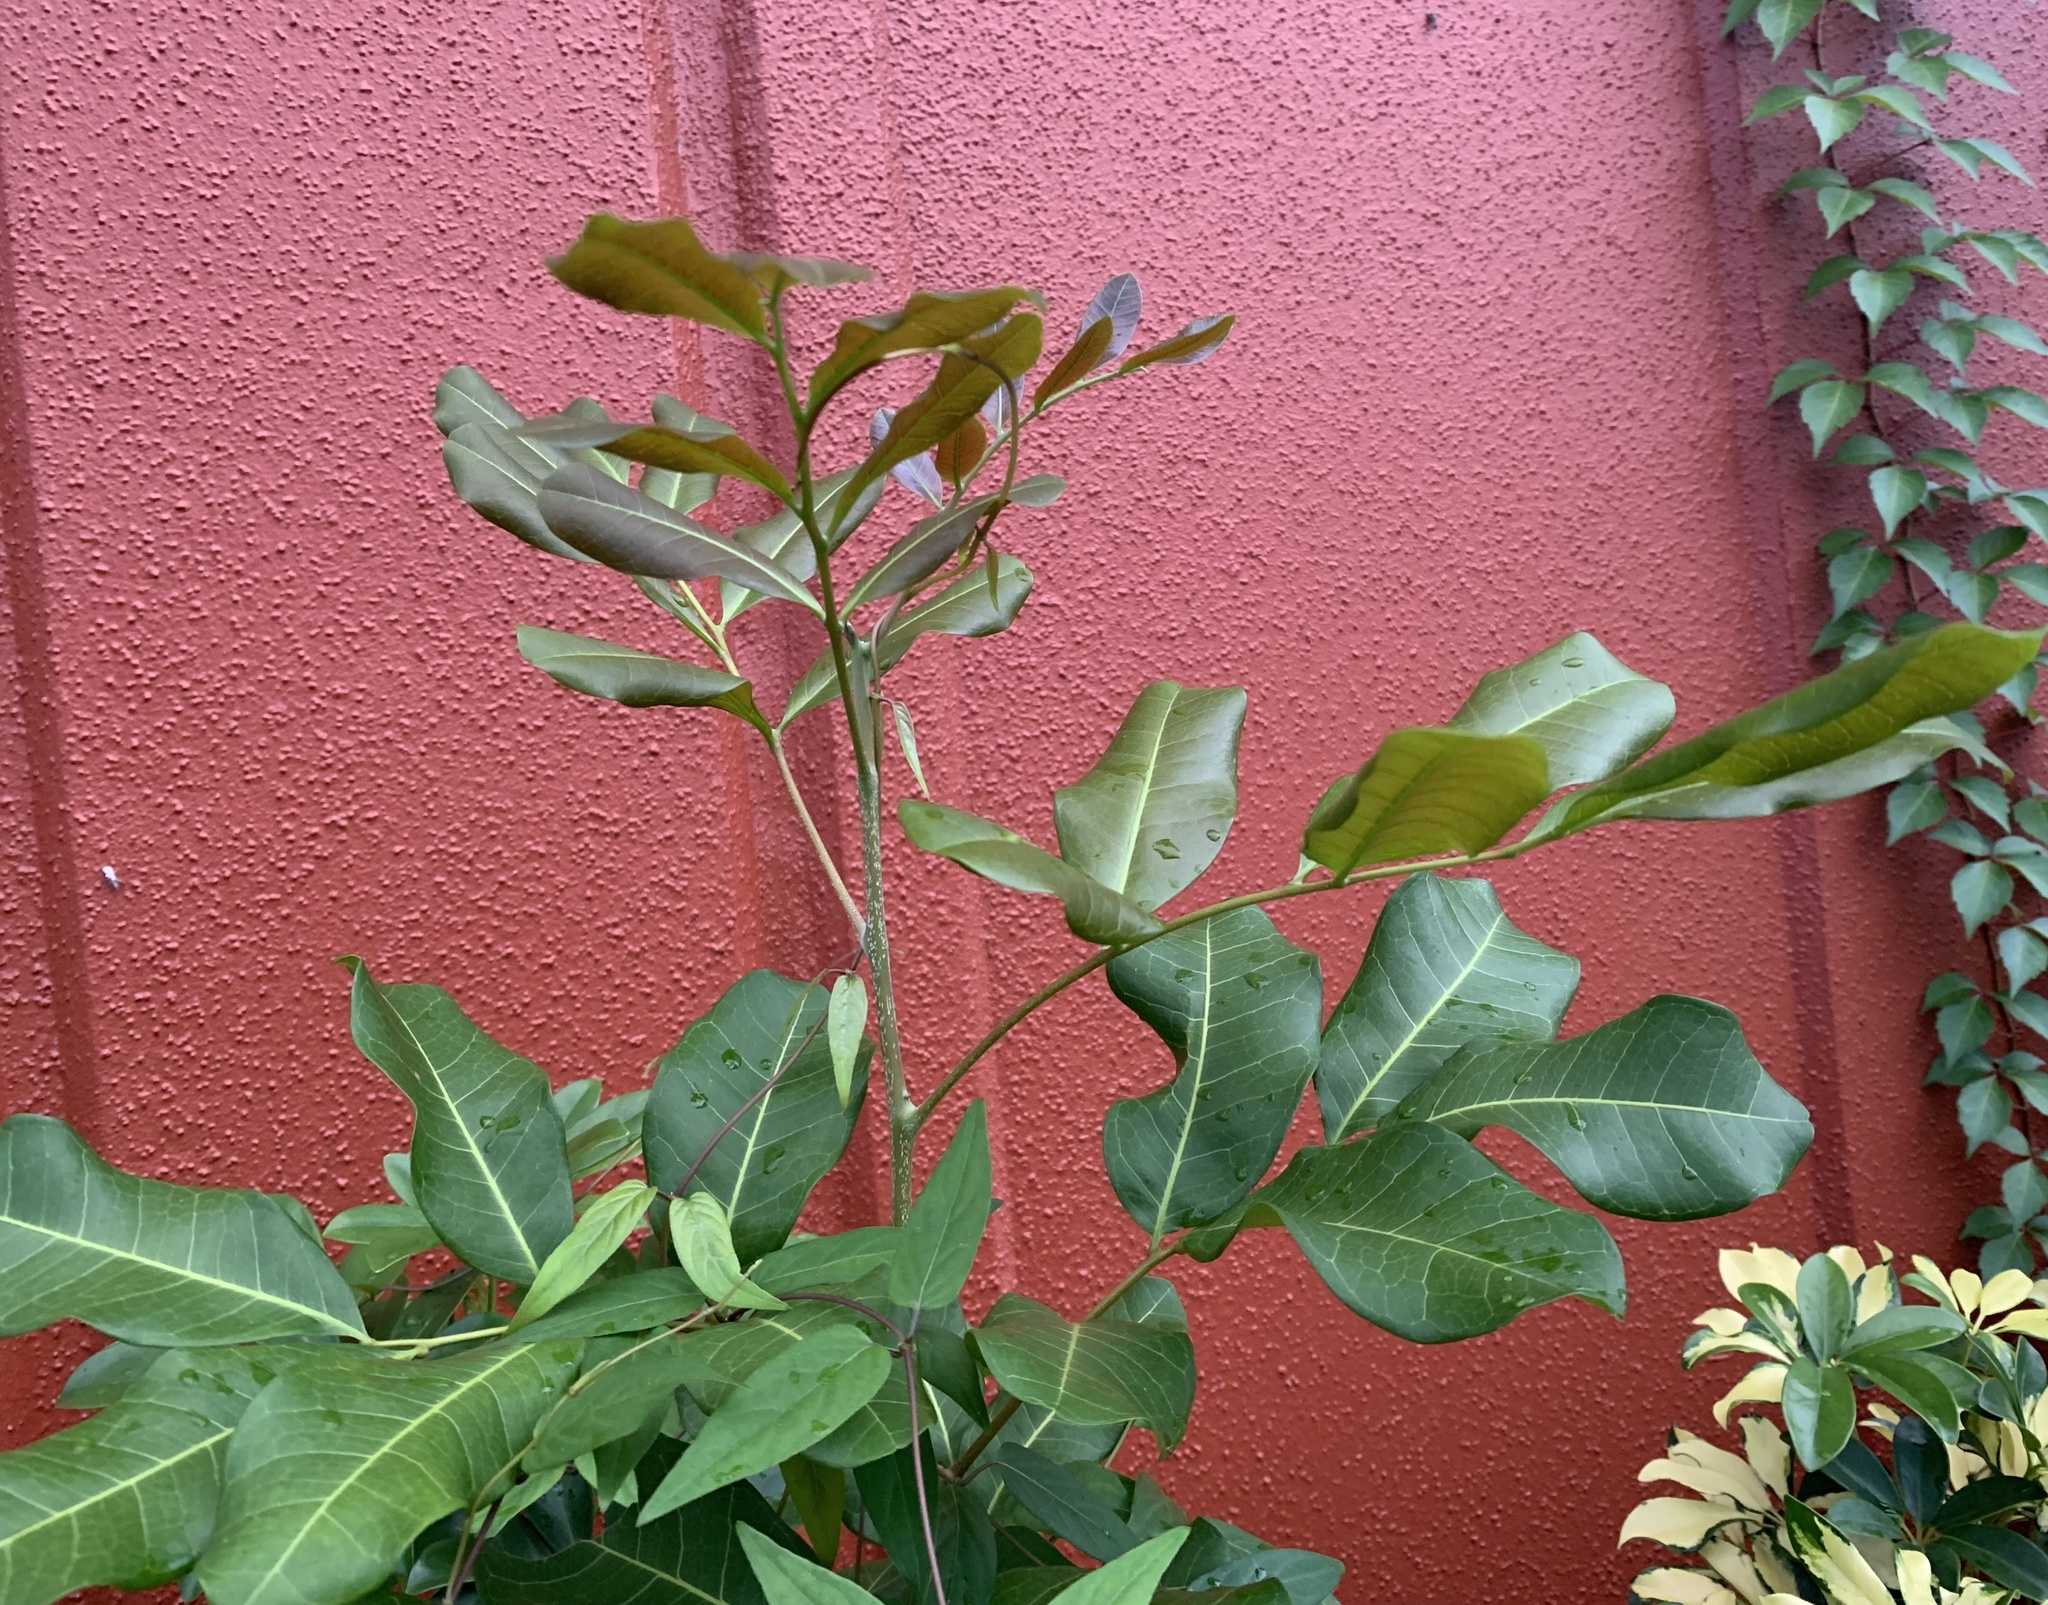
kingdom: Plantae
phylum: Tracheophyta
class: Magnoliopsida
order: Sapindales
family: Sapindaceae
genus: Cupaniopsis
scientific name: Cupaniopsis anacardioides
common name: Carrotwood
